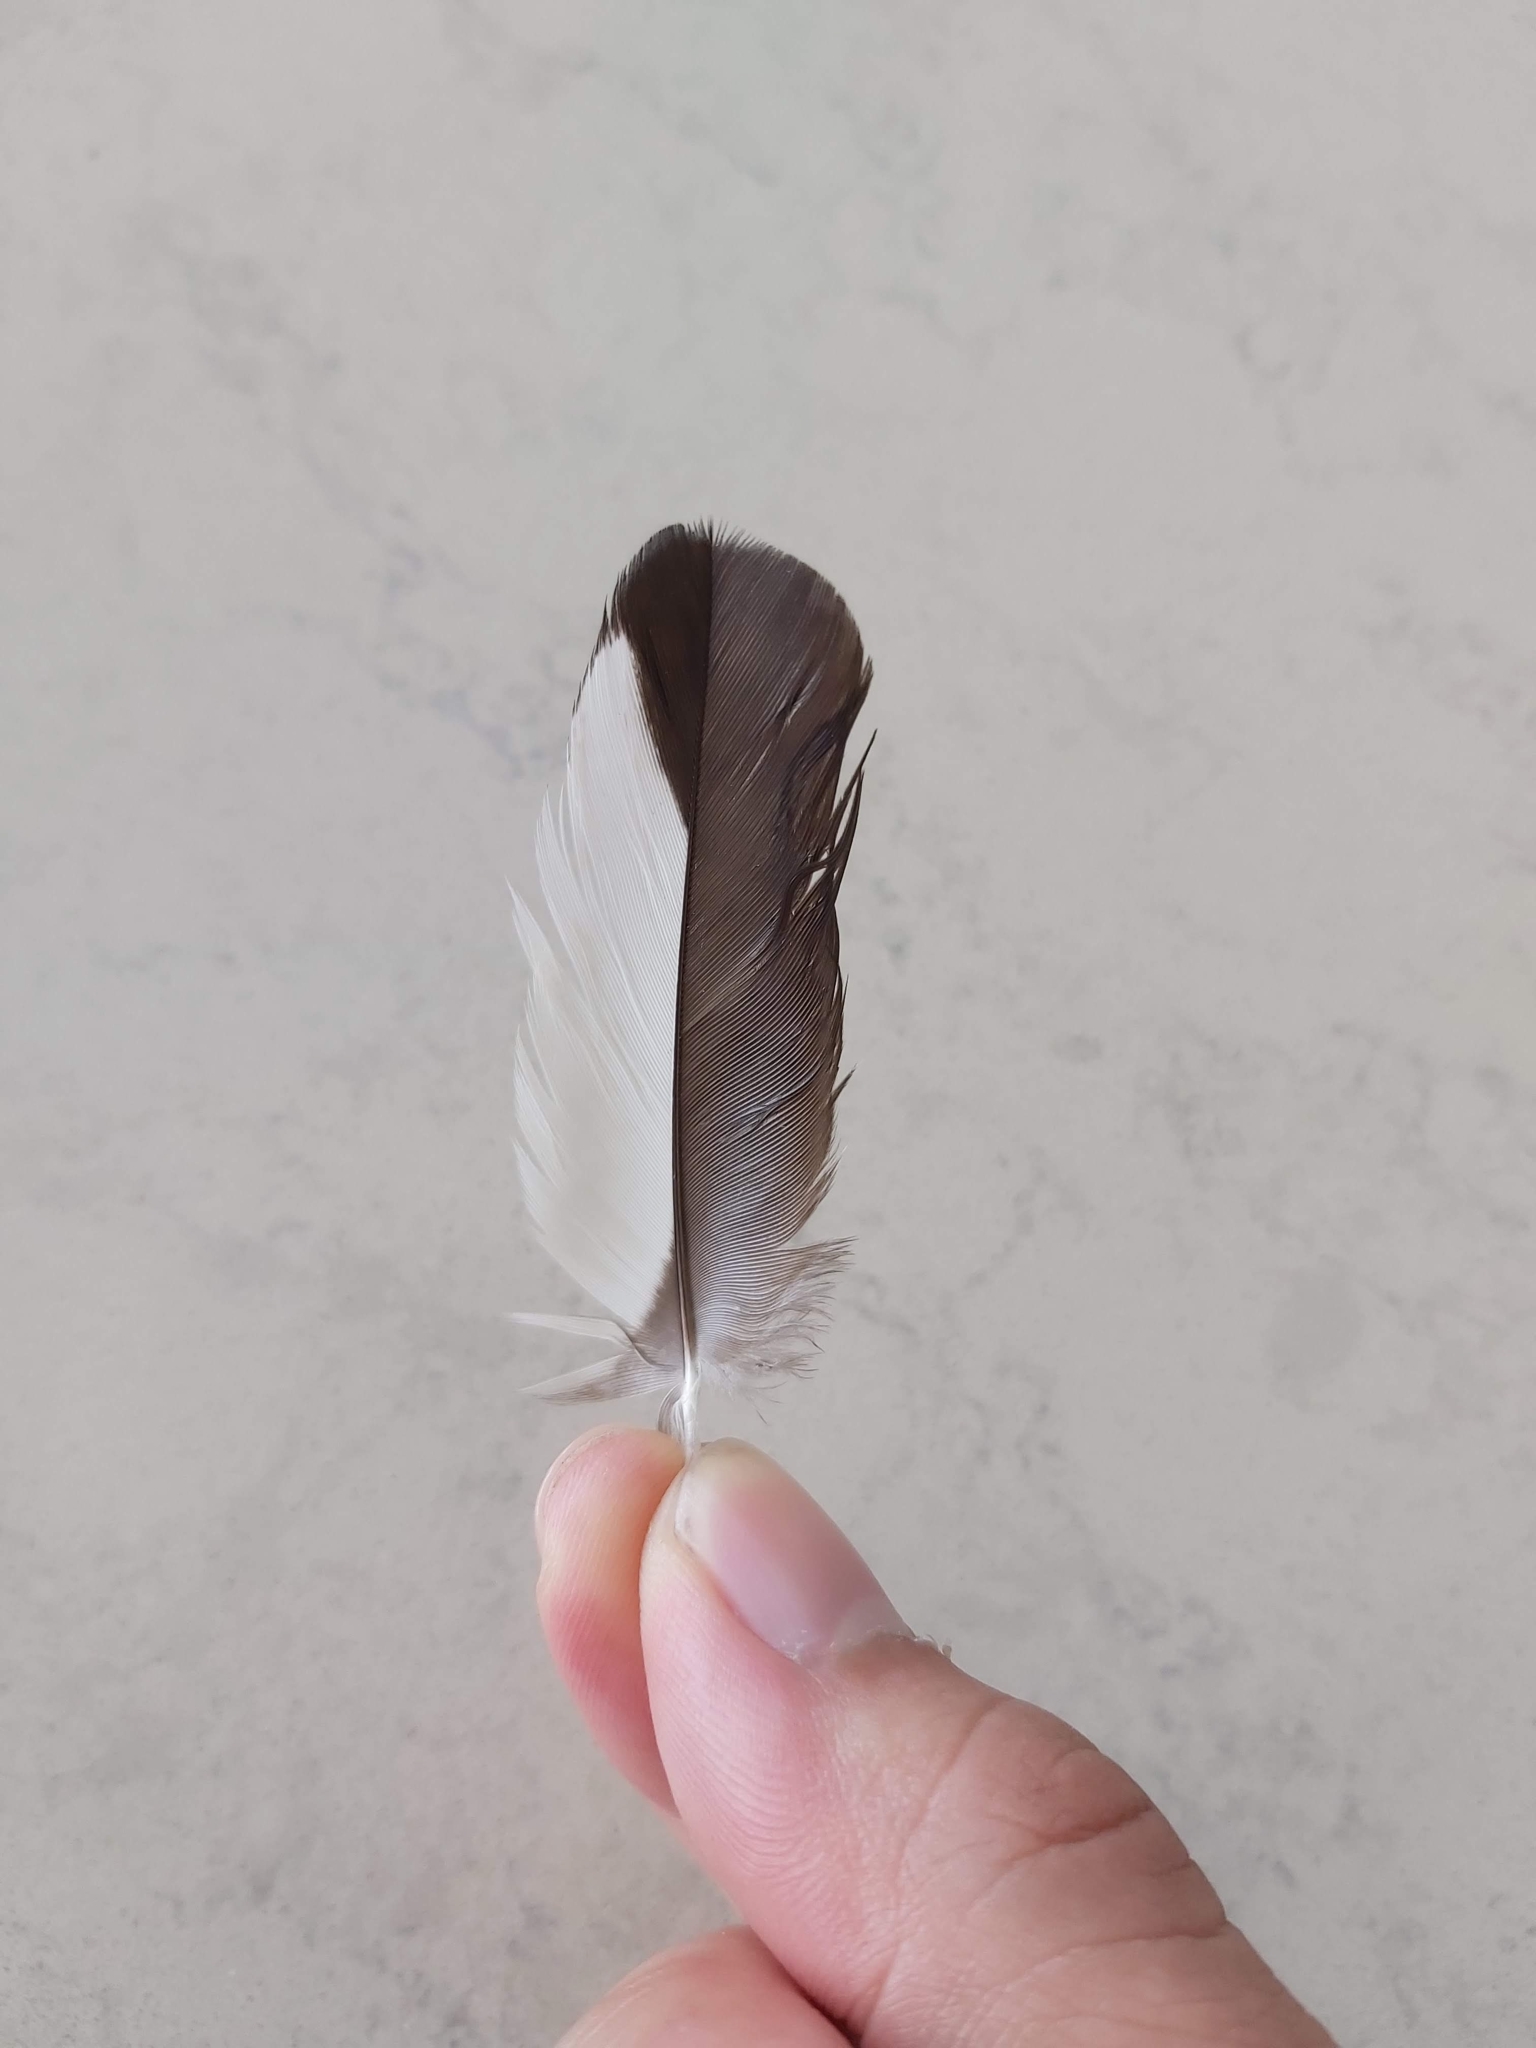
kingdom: Animalia
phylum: Chordata
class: Aves
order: Passeriformes
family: Cracticidae
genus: Gymnorhina
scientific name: Gymnorhina tibicen
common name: Australian magpie
